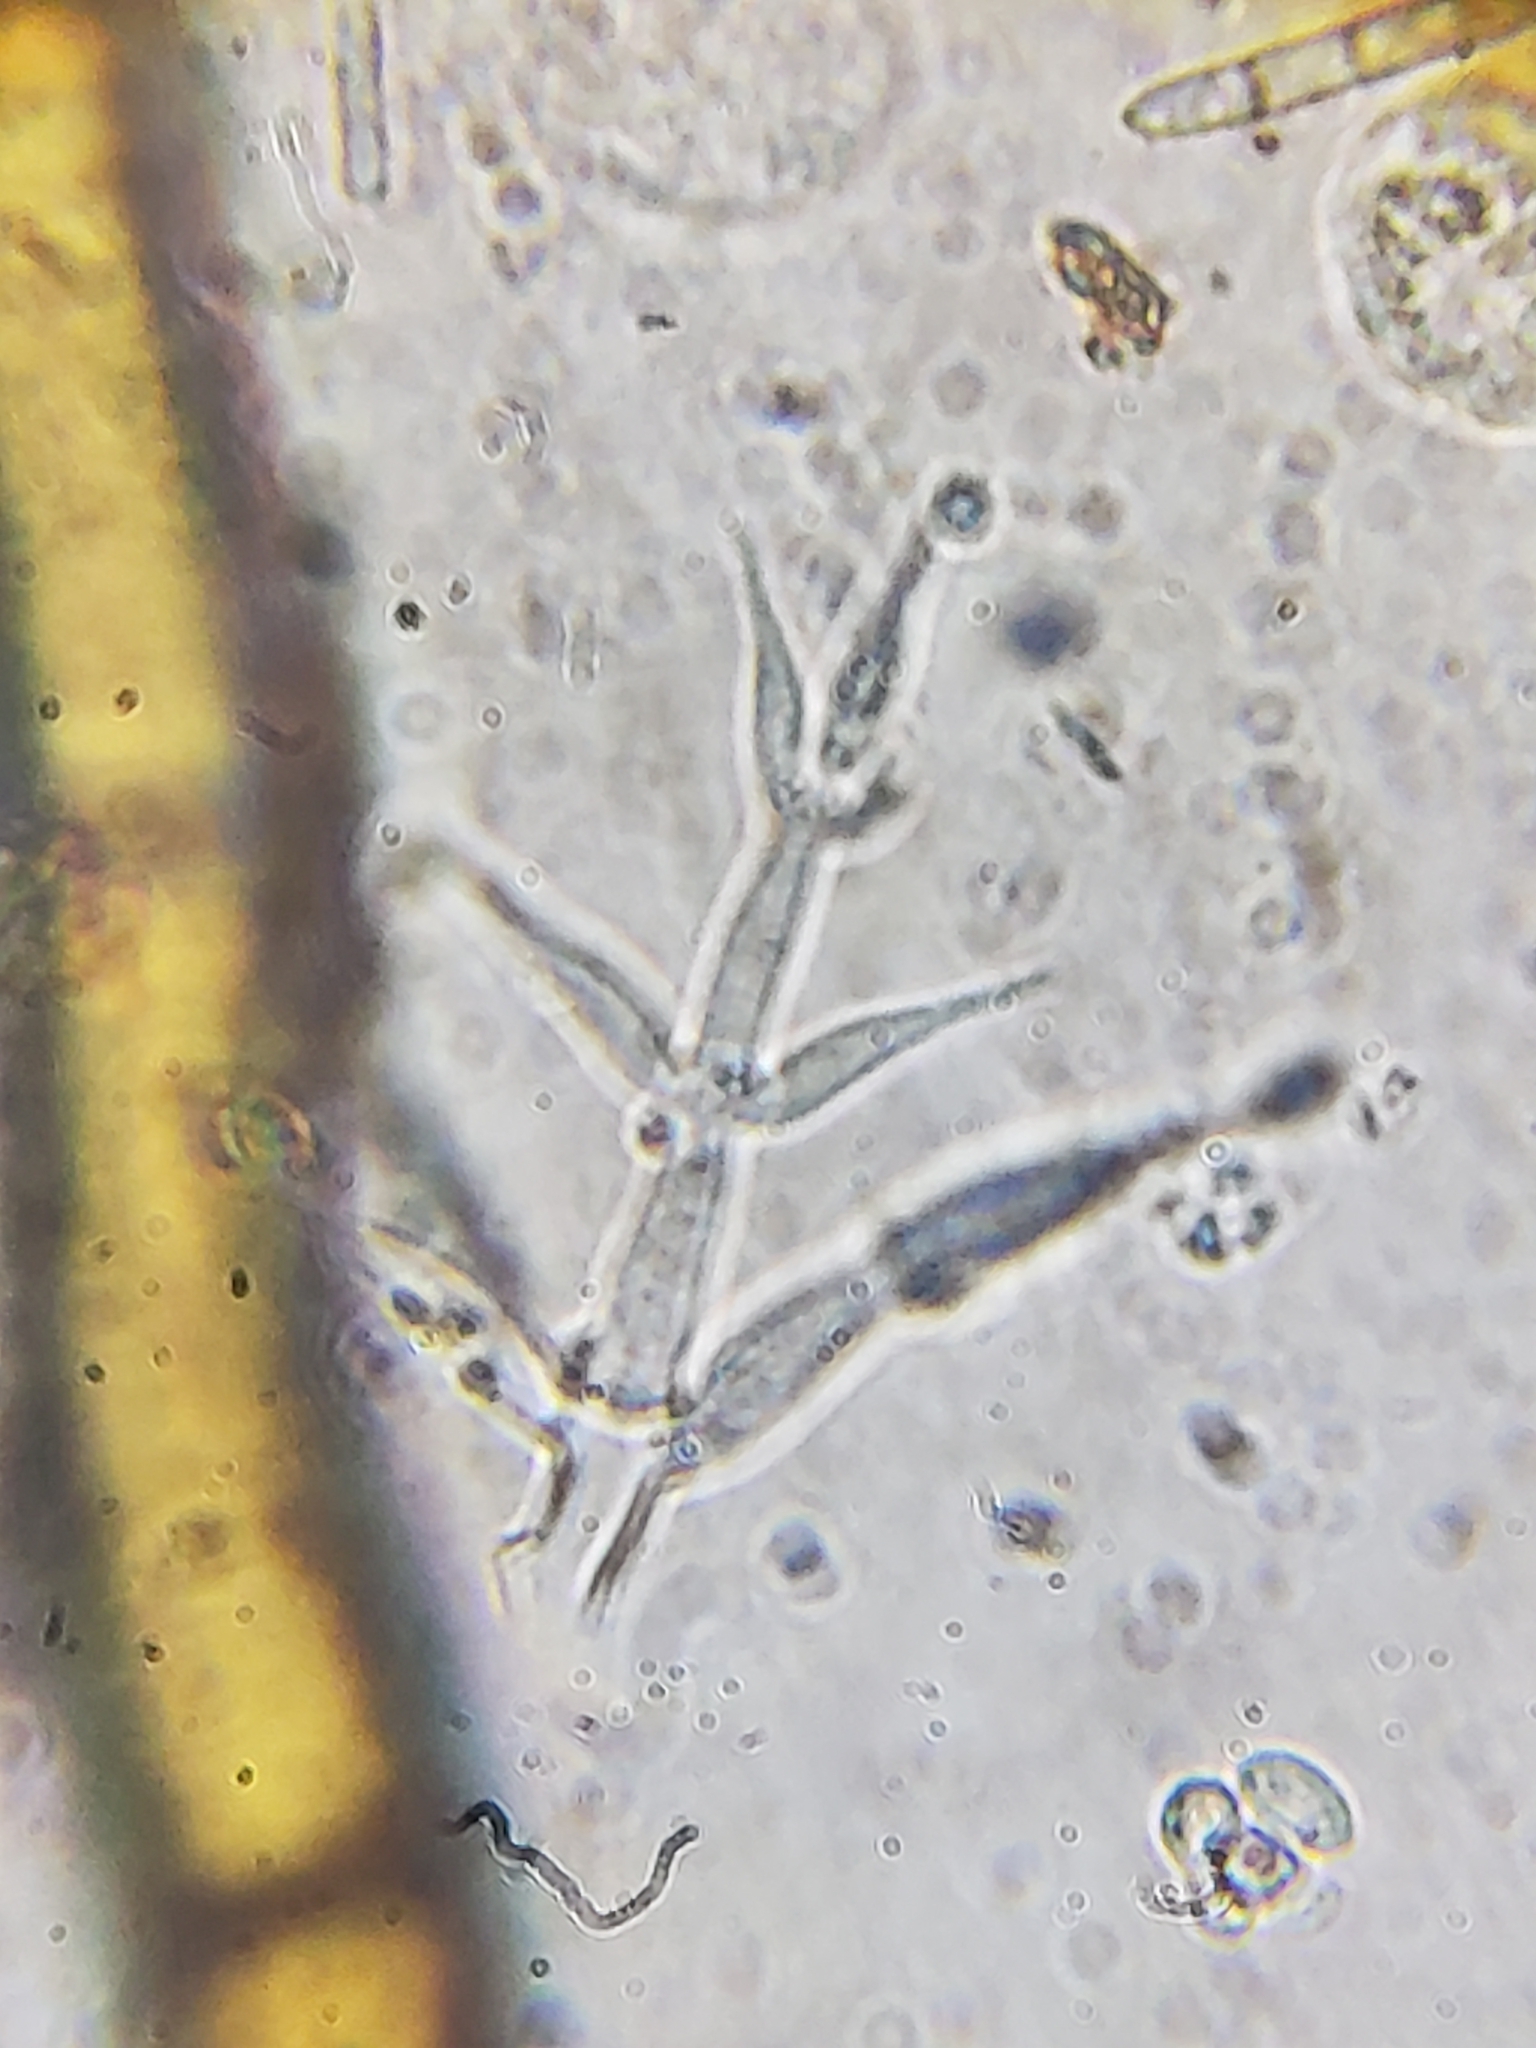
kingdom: Fungi
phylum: Ascomycota
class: Sordariomycetes
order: Hypocreales
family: Nectriaceae
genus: Mariannaea
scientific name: Mariannaea elegans
